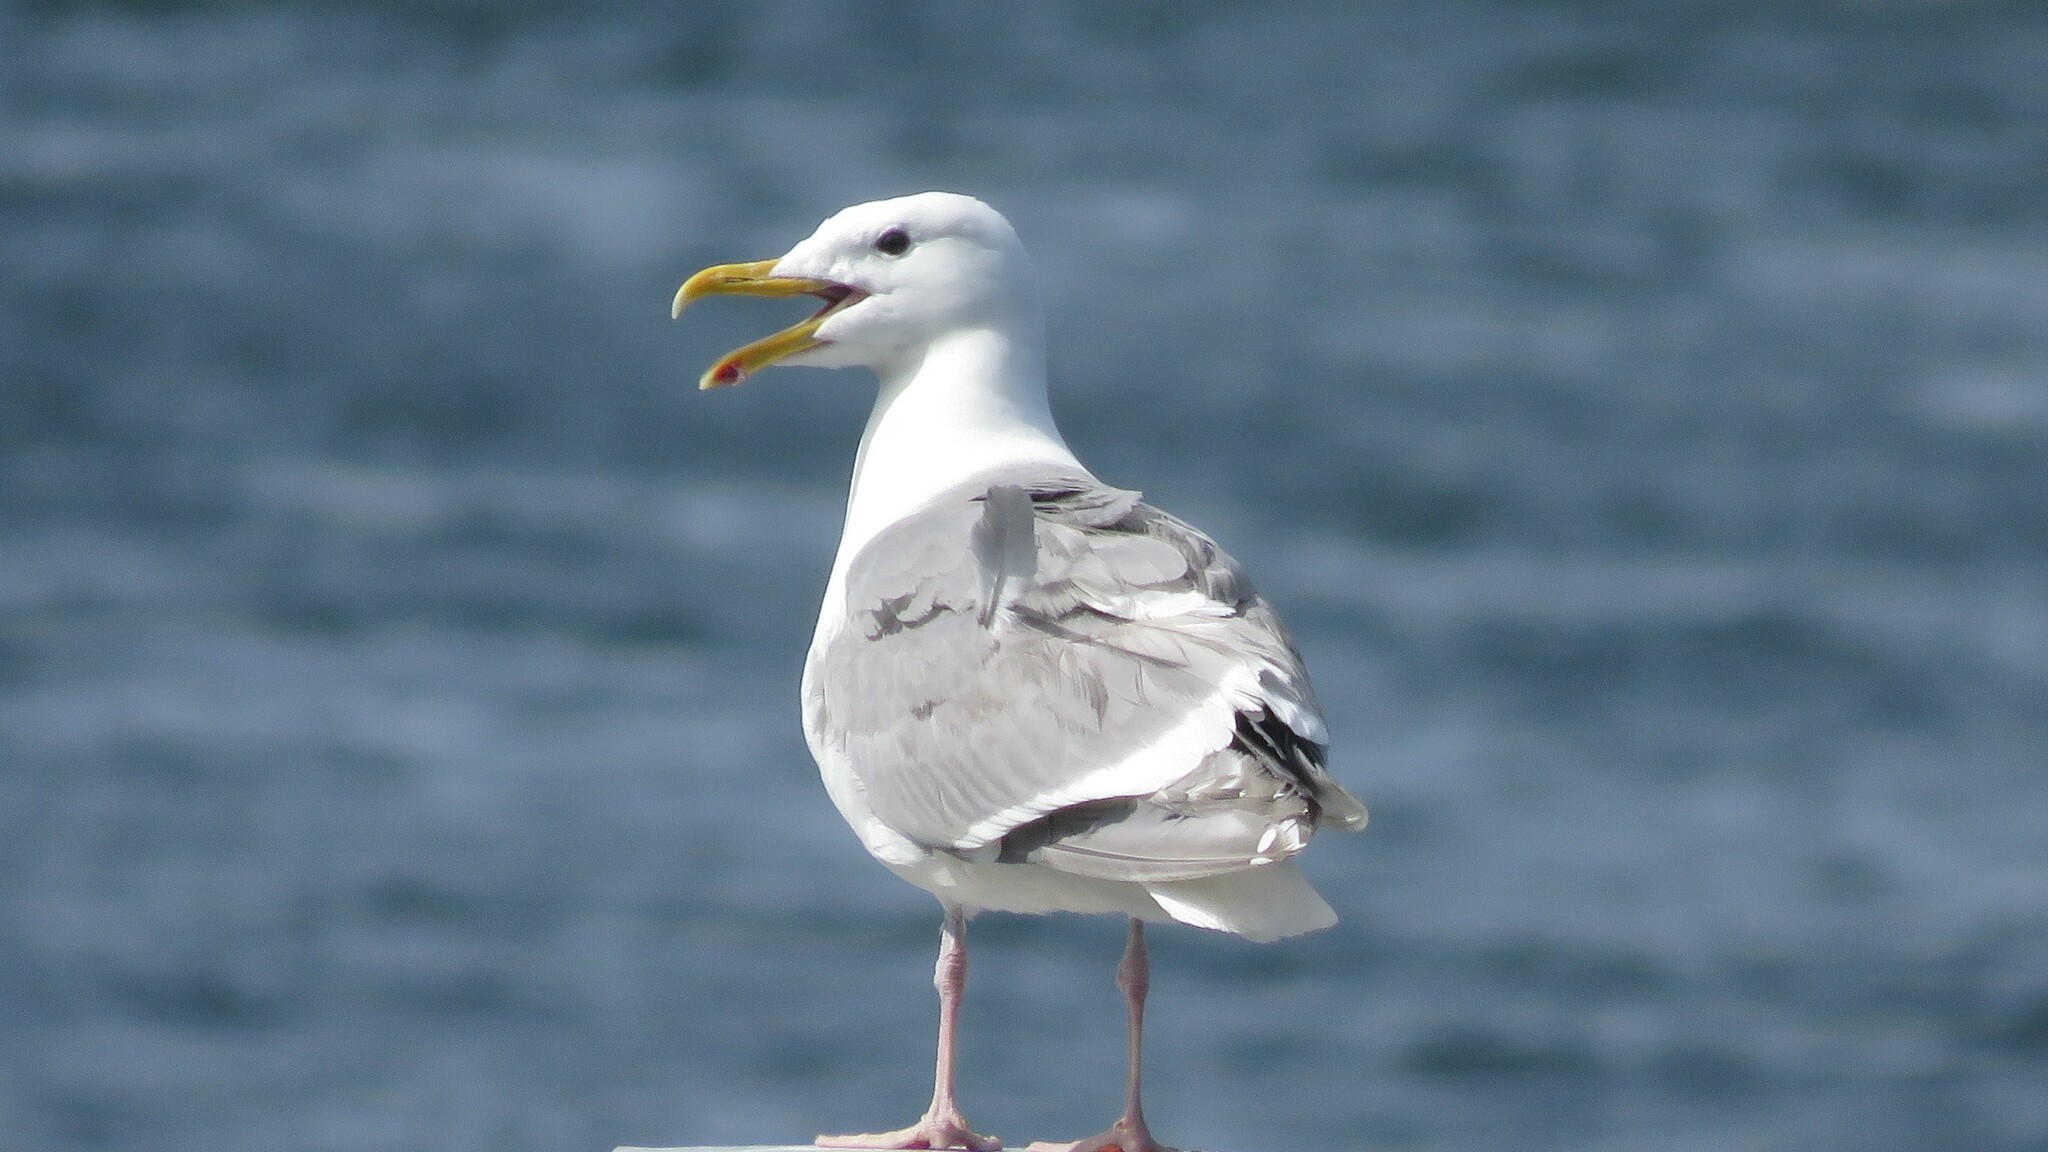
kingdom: Animalia
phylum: Chordata
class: Aves
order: Charadriiformes
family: Laridae
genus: Larus
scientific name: Larus glaucescens
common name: Glaucous-winged gull
